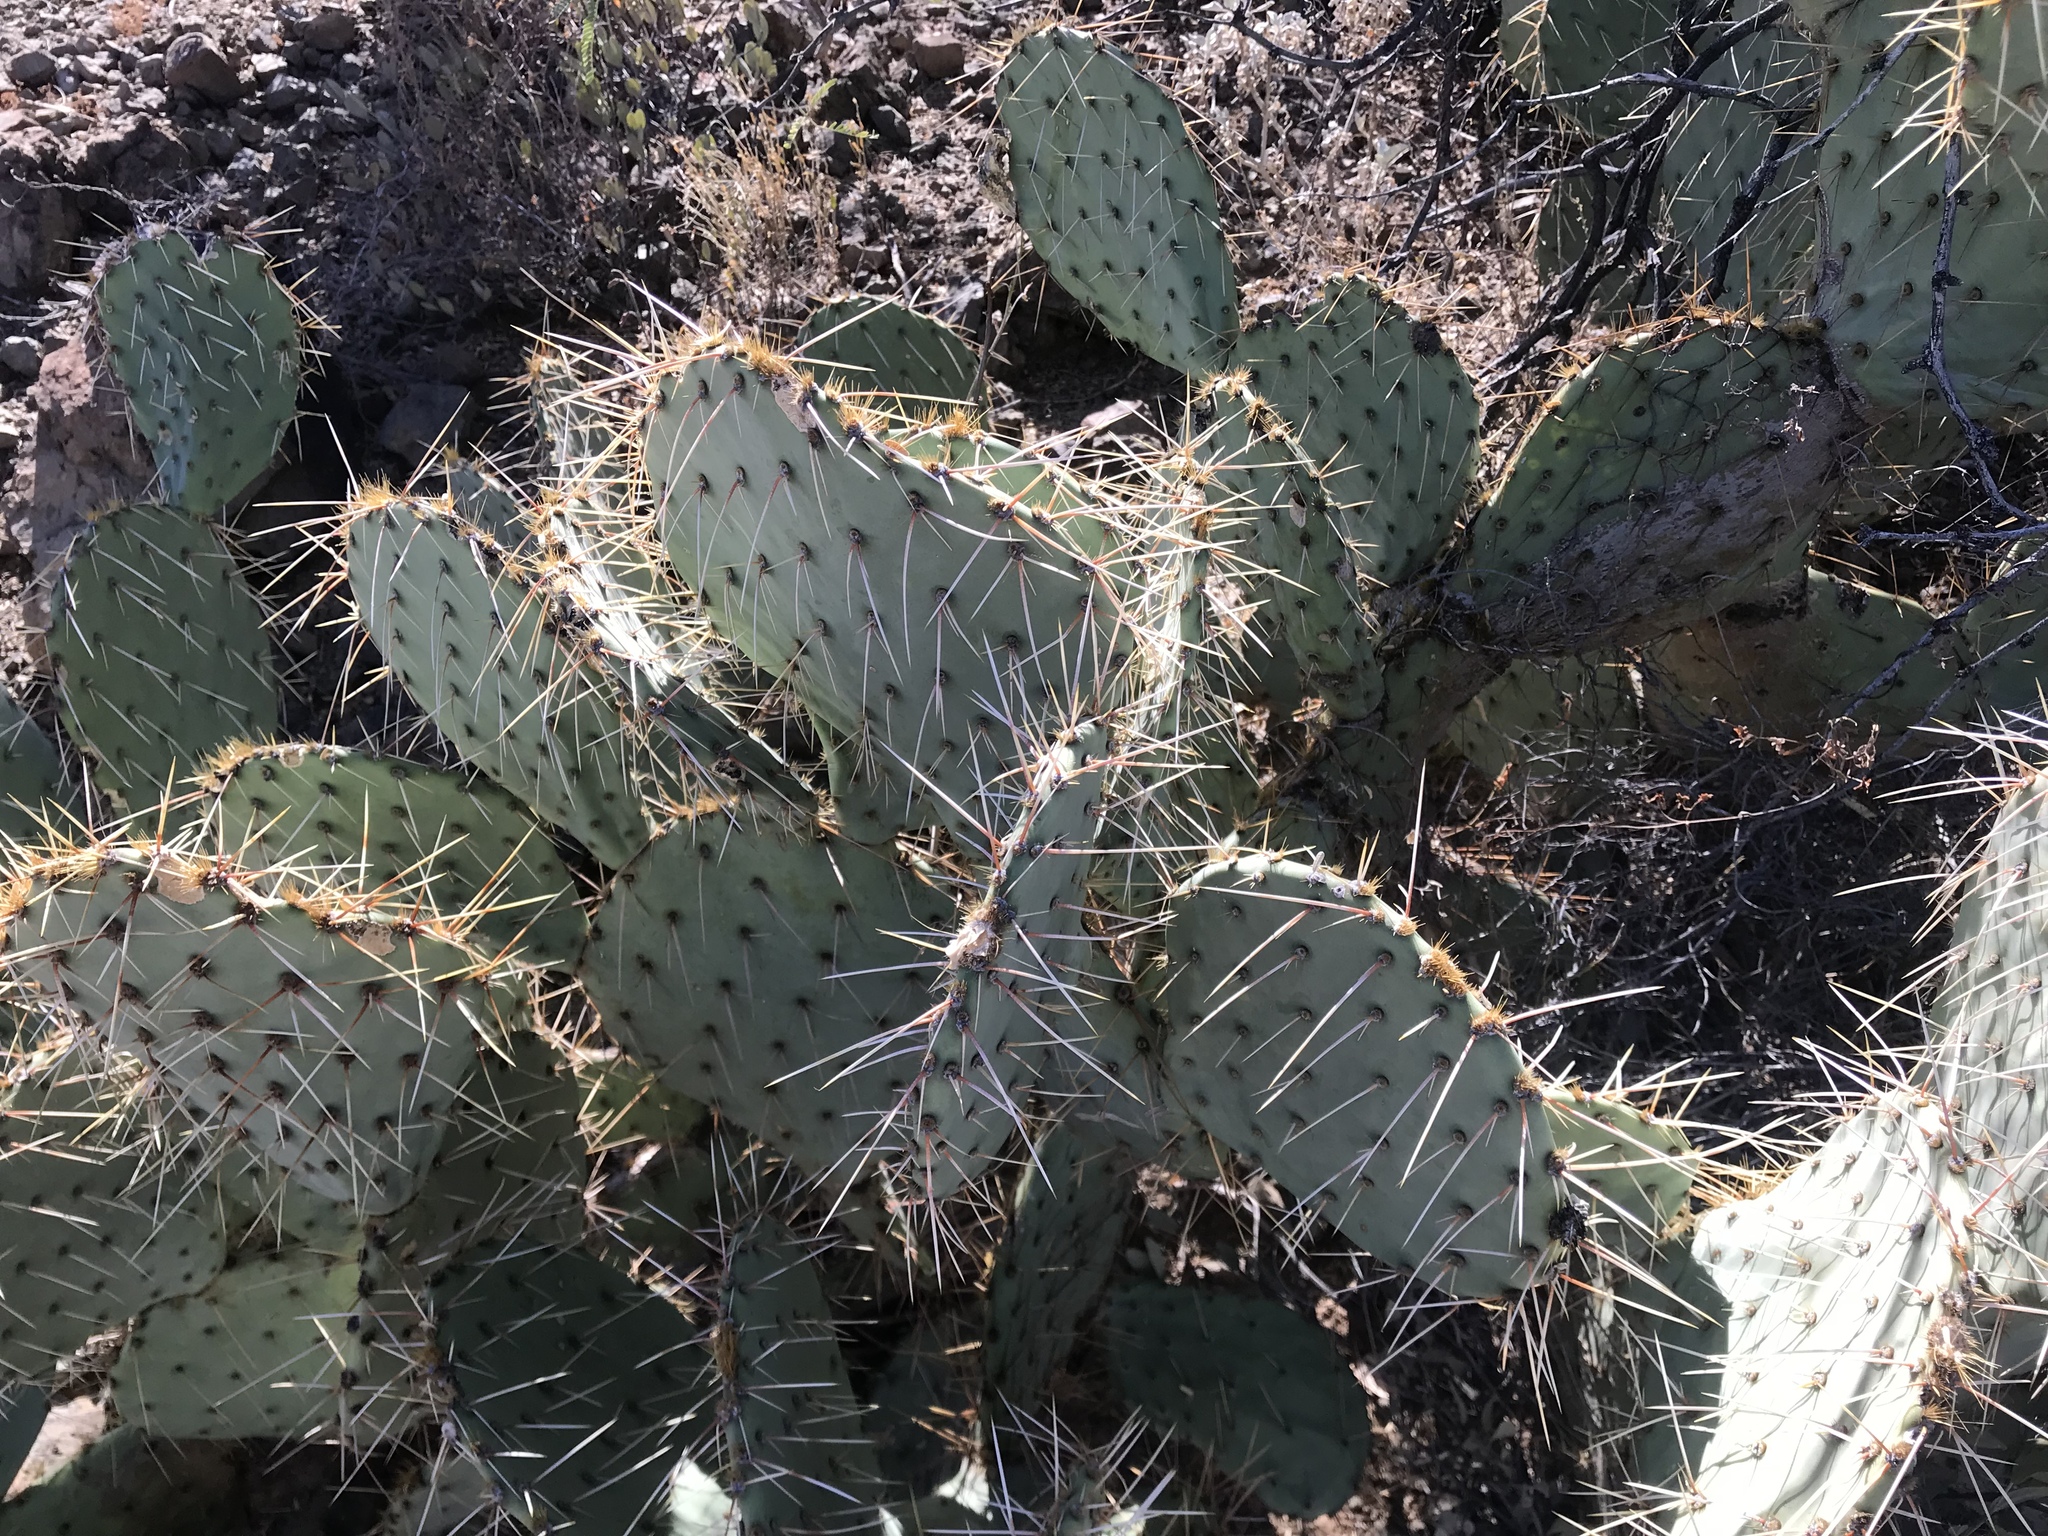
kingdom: Plantae
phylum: Tracheophyta
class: Magnoliopsida
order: Caryophyllales
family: Cactaceae
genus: Opuntia
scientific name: Opuntia engelmannii
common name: Cactus-apple
